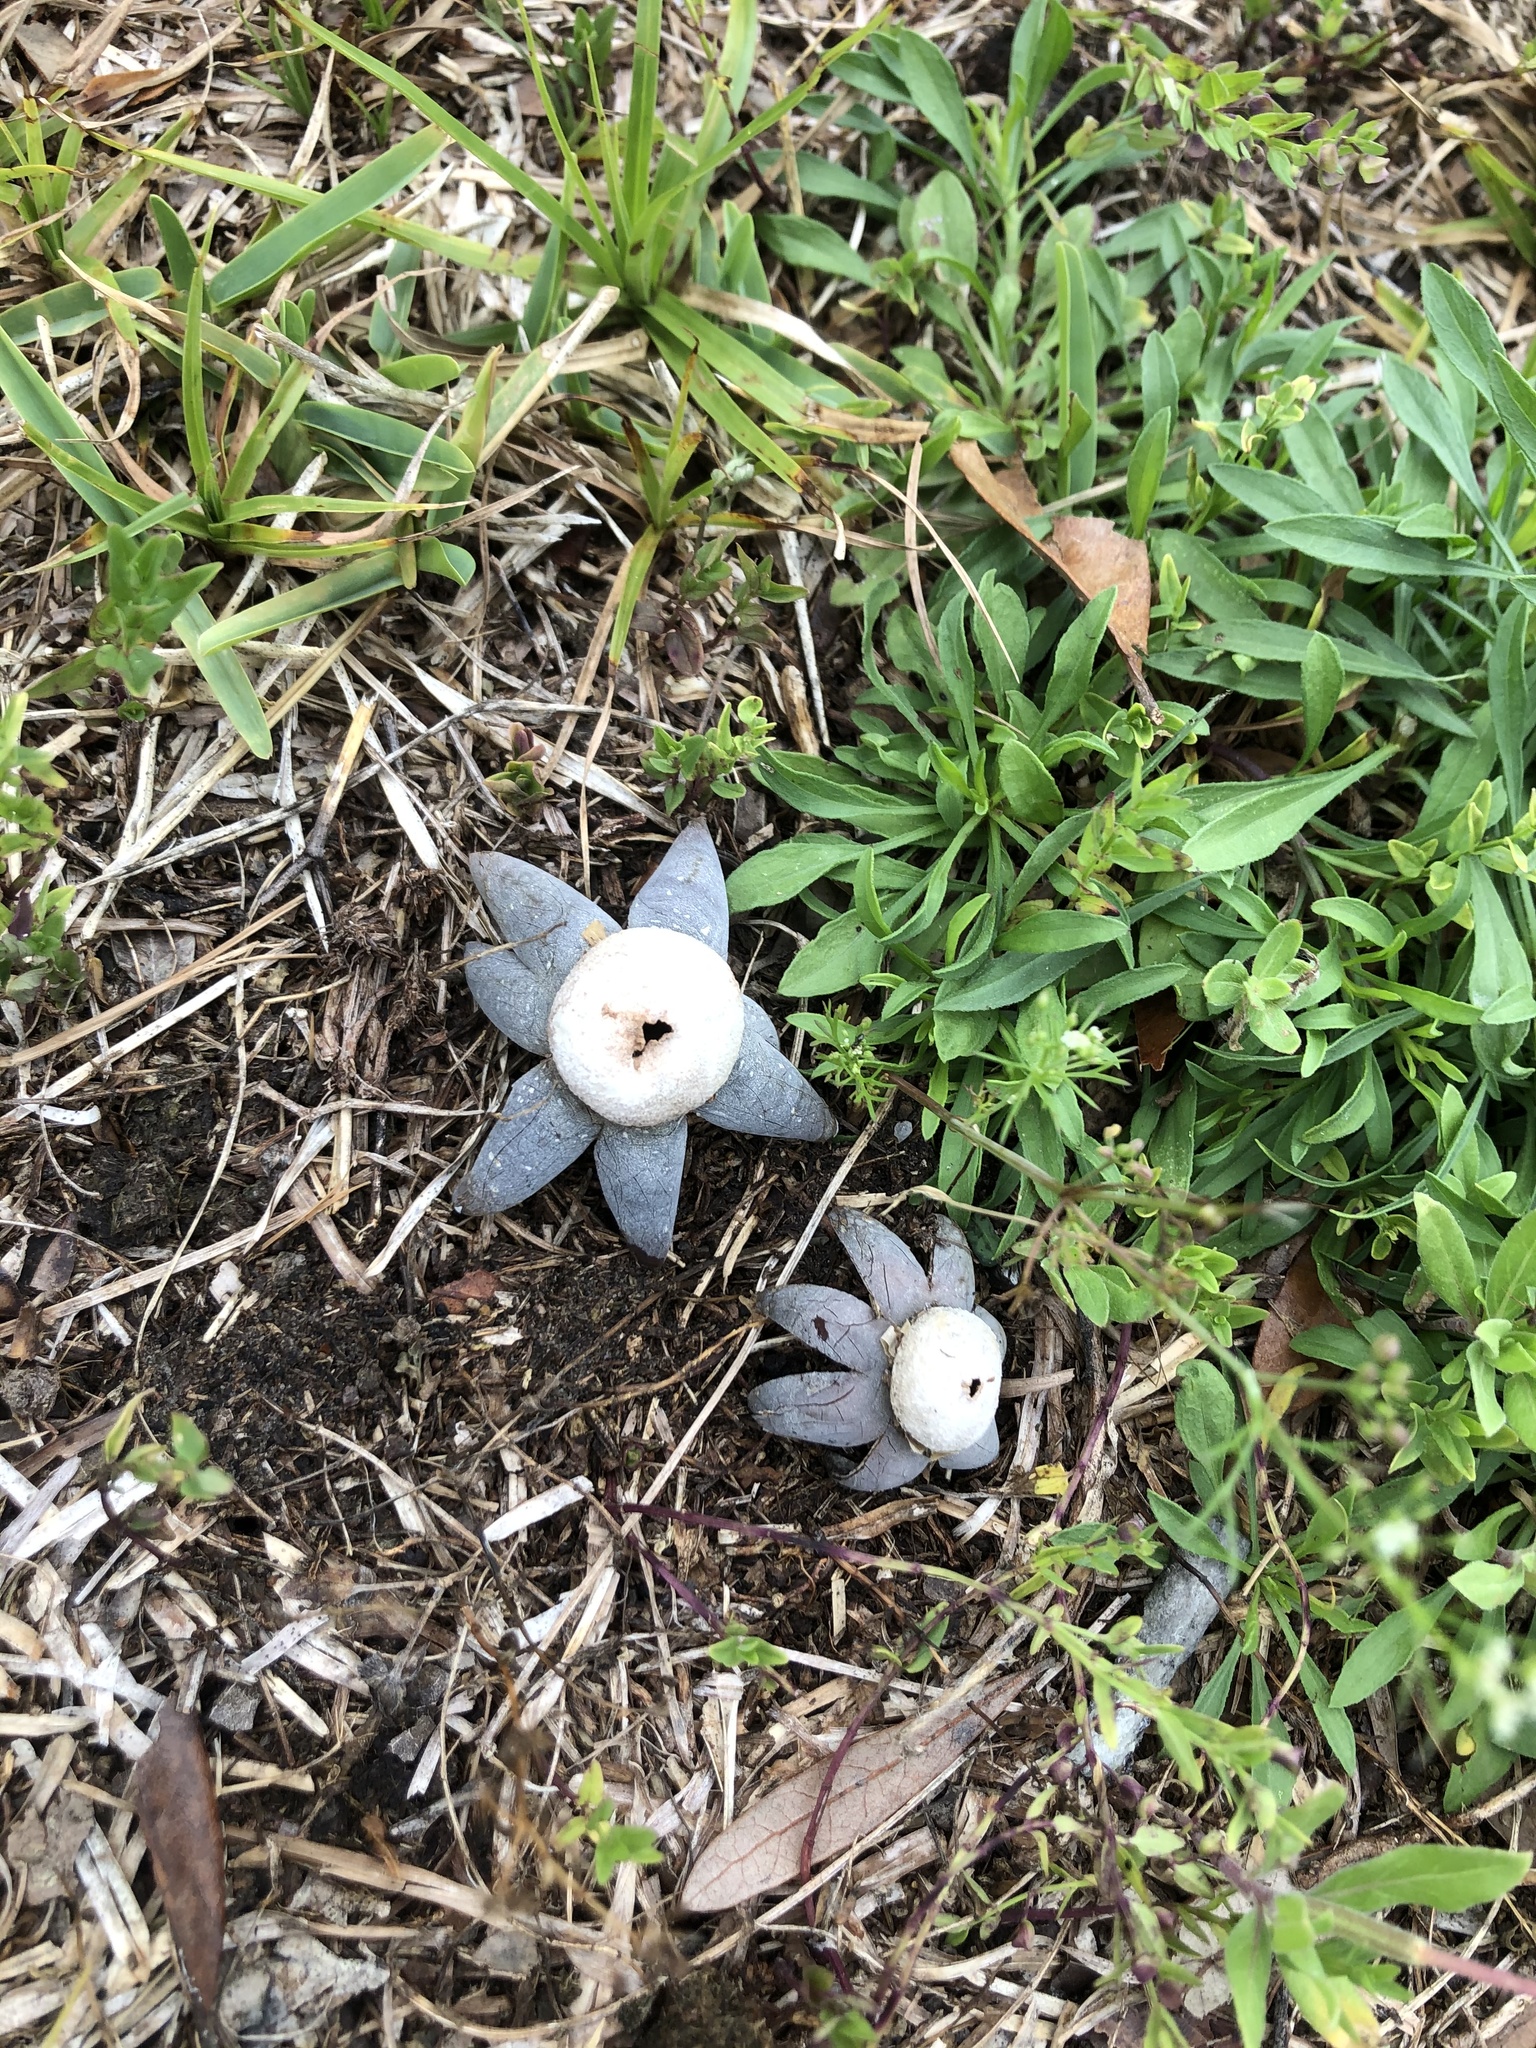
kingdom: Fungi
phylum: Basidiomycota
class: Agaricomycetes
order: Boletales
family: Diplocystidiaceae
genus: Astraeus
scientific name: Astraeus hygrometricus
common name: Barometer earthstar
